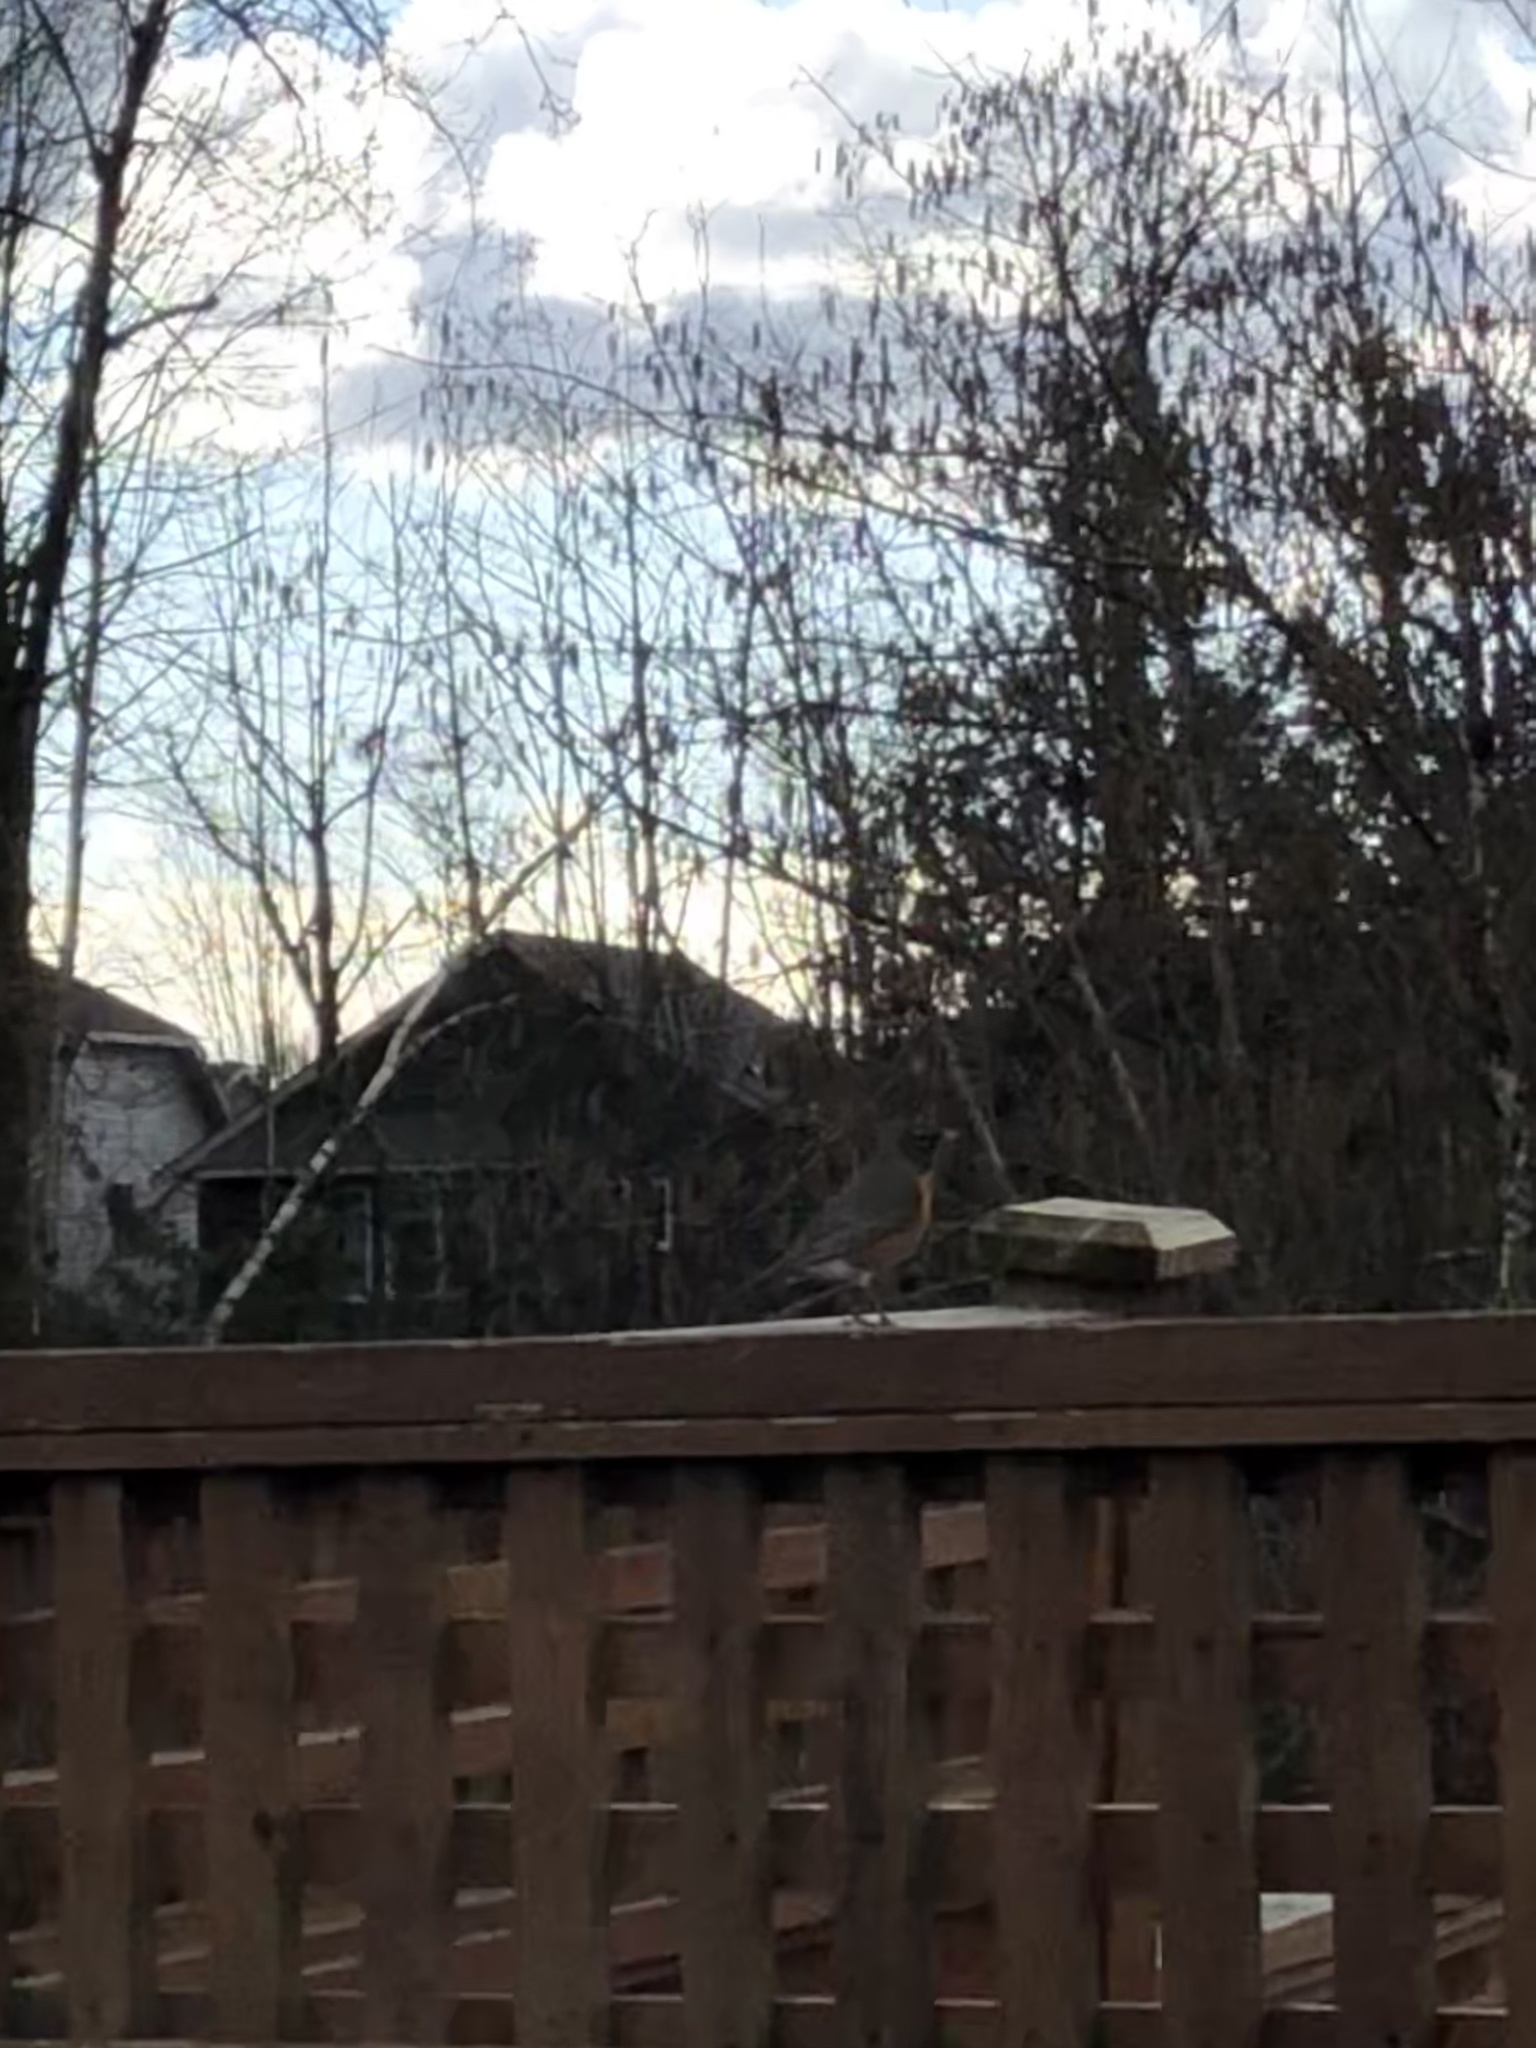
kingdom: Animalia
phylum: Chordata
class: Aves
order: Passeriformes
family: Turdidae
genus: Turdus
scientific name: Turdus migratorius
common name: American robin
